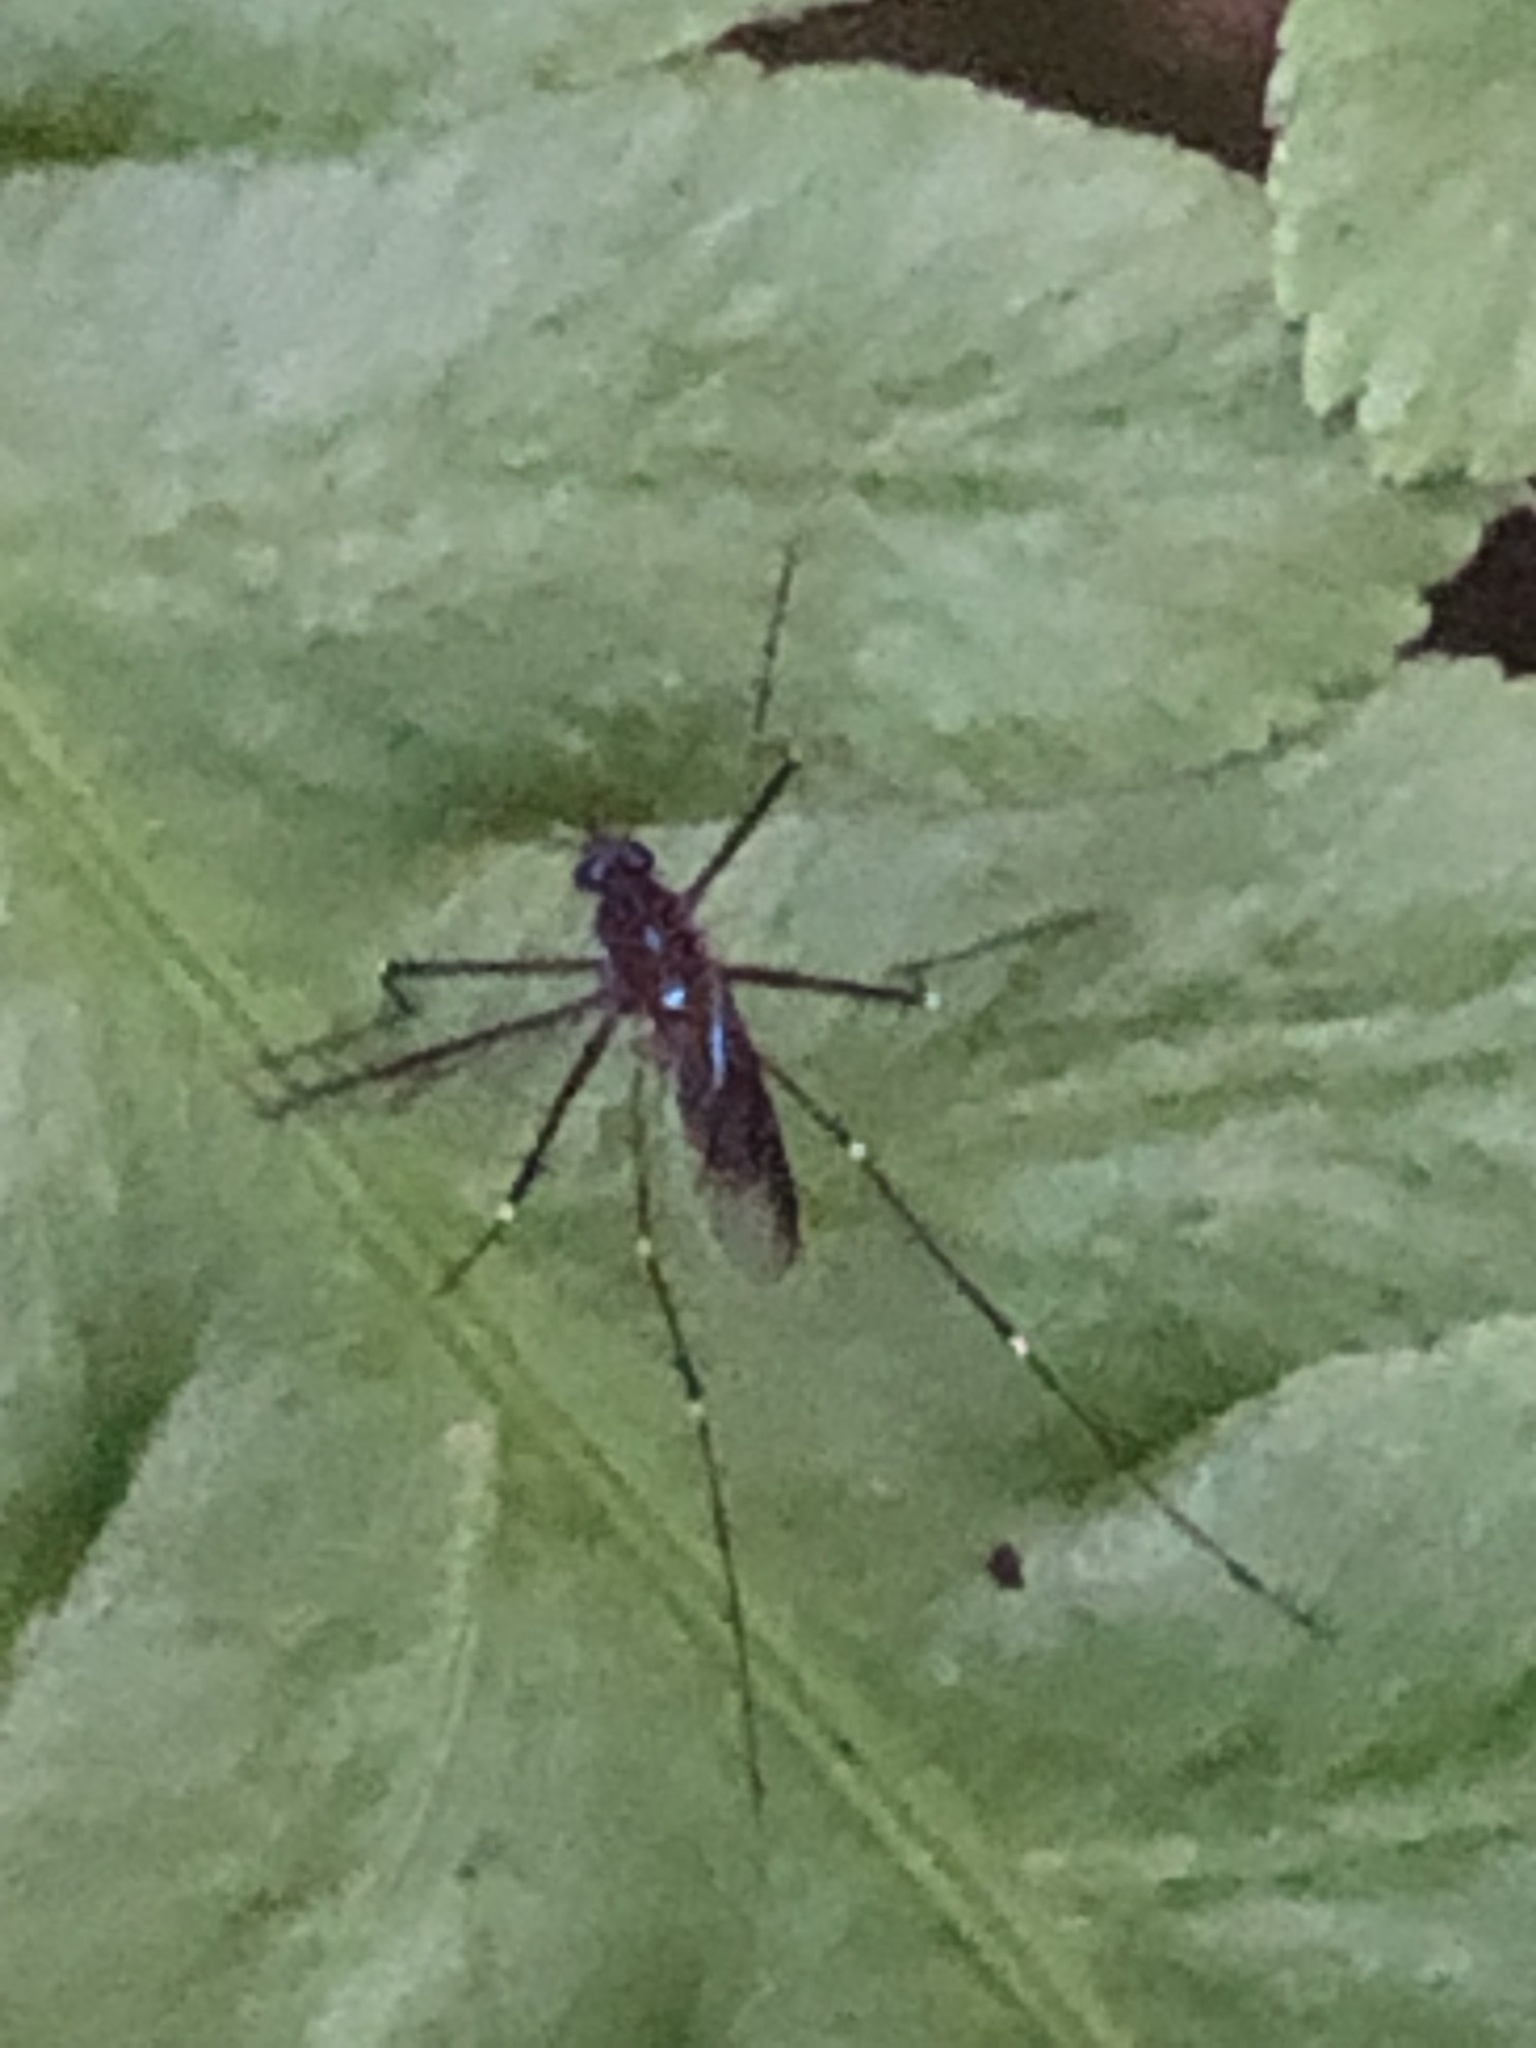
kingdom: Animalia
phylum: Arthropoda
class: Insecta
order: Diptera
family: Culicidae
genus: Uranotaenia
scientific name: Uranotaenia sapphirina
